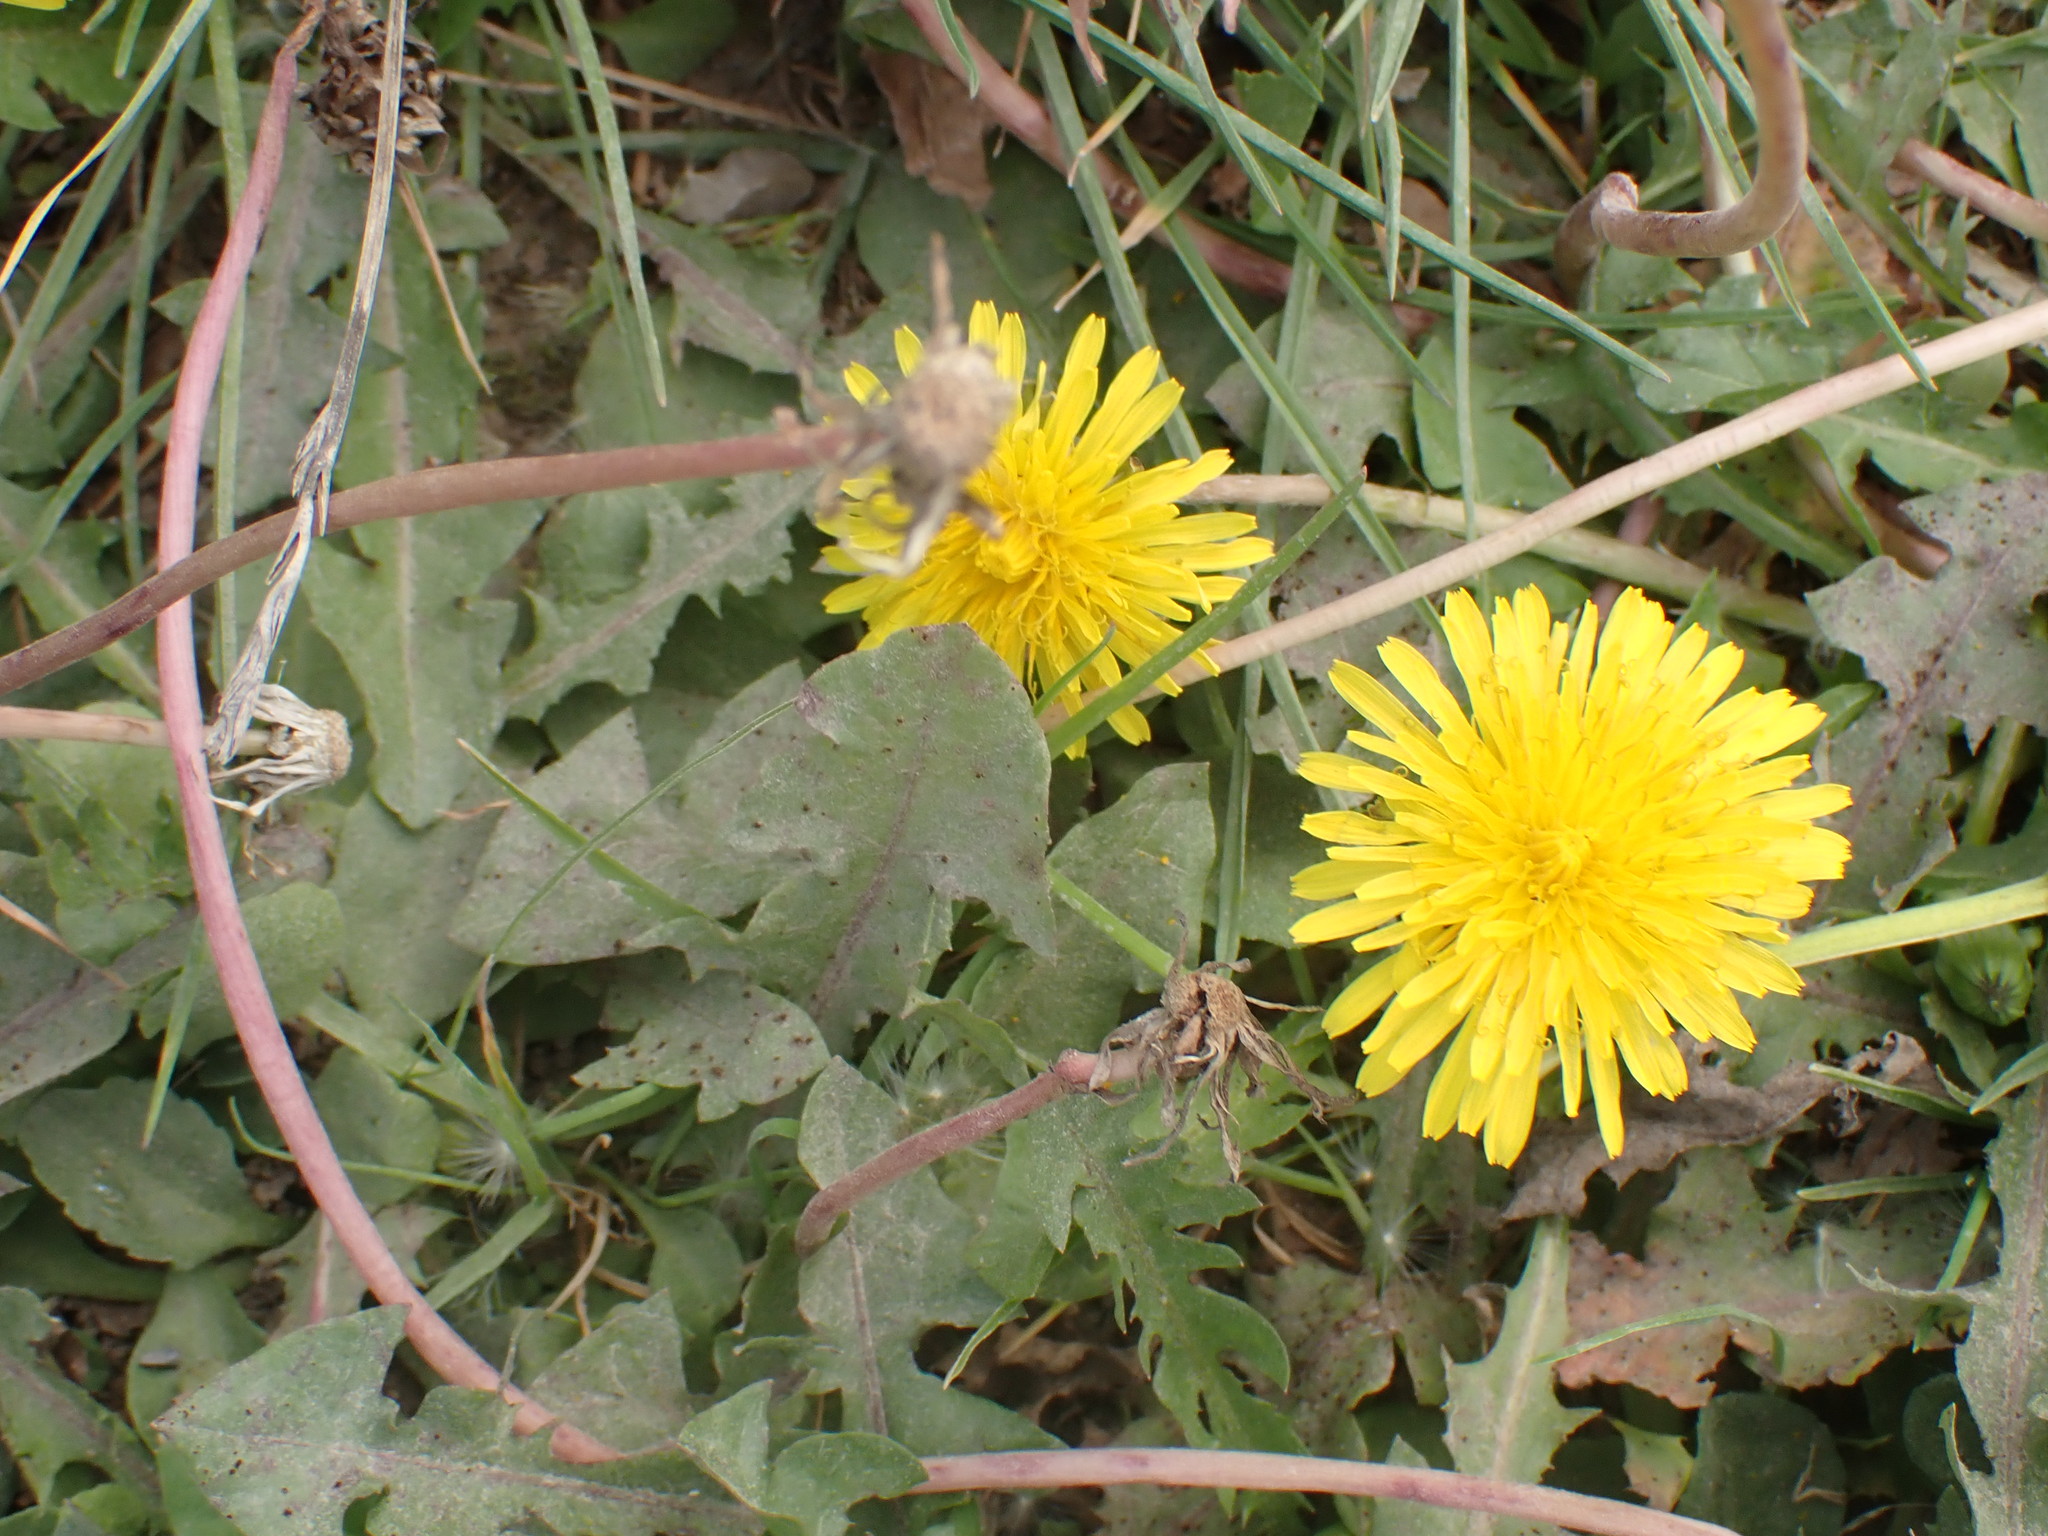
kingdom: Plantae
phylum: Tracheophyta
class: Magnoliopsida
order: Asterales
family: Asteraceae
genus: Taraxacum
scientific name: Taraxacum officinale
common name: Common dandelion
